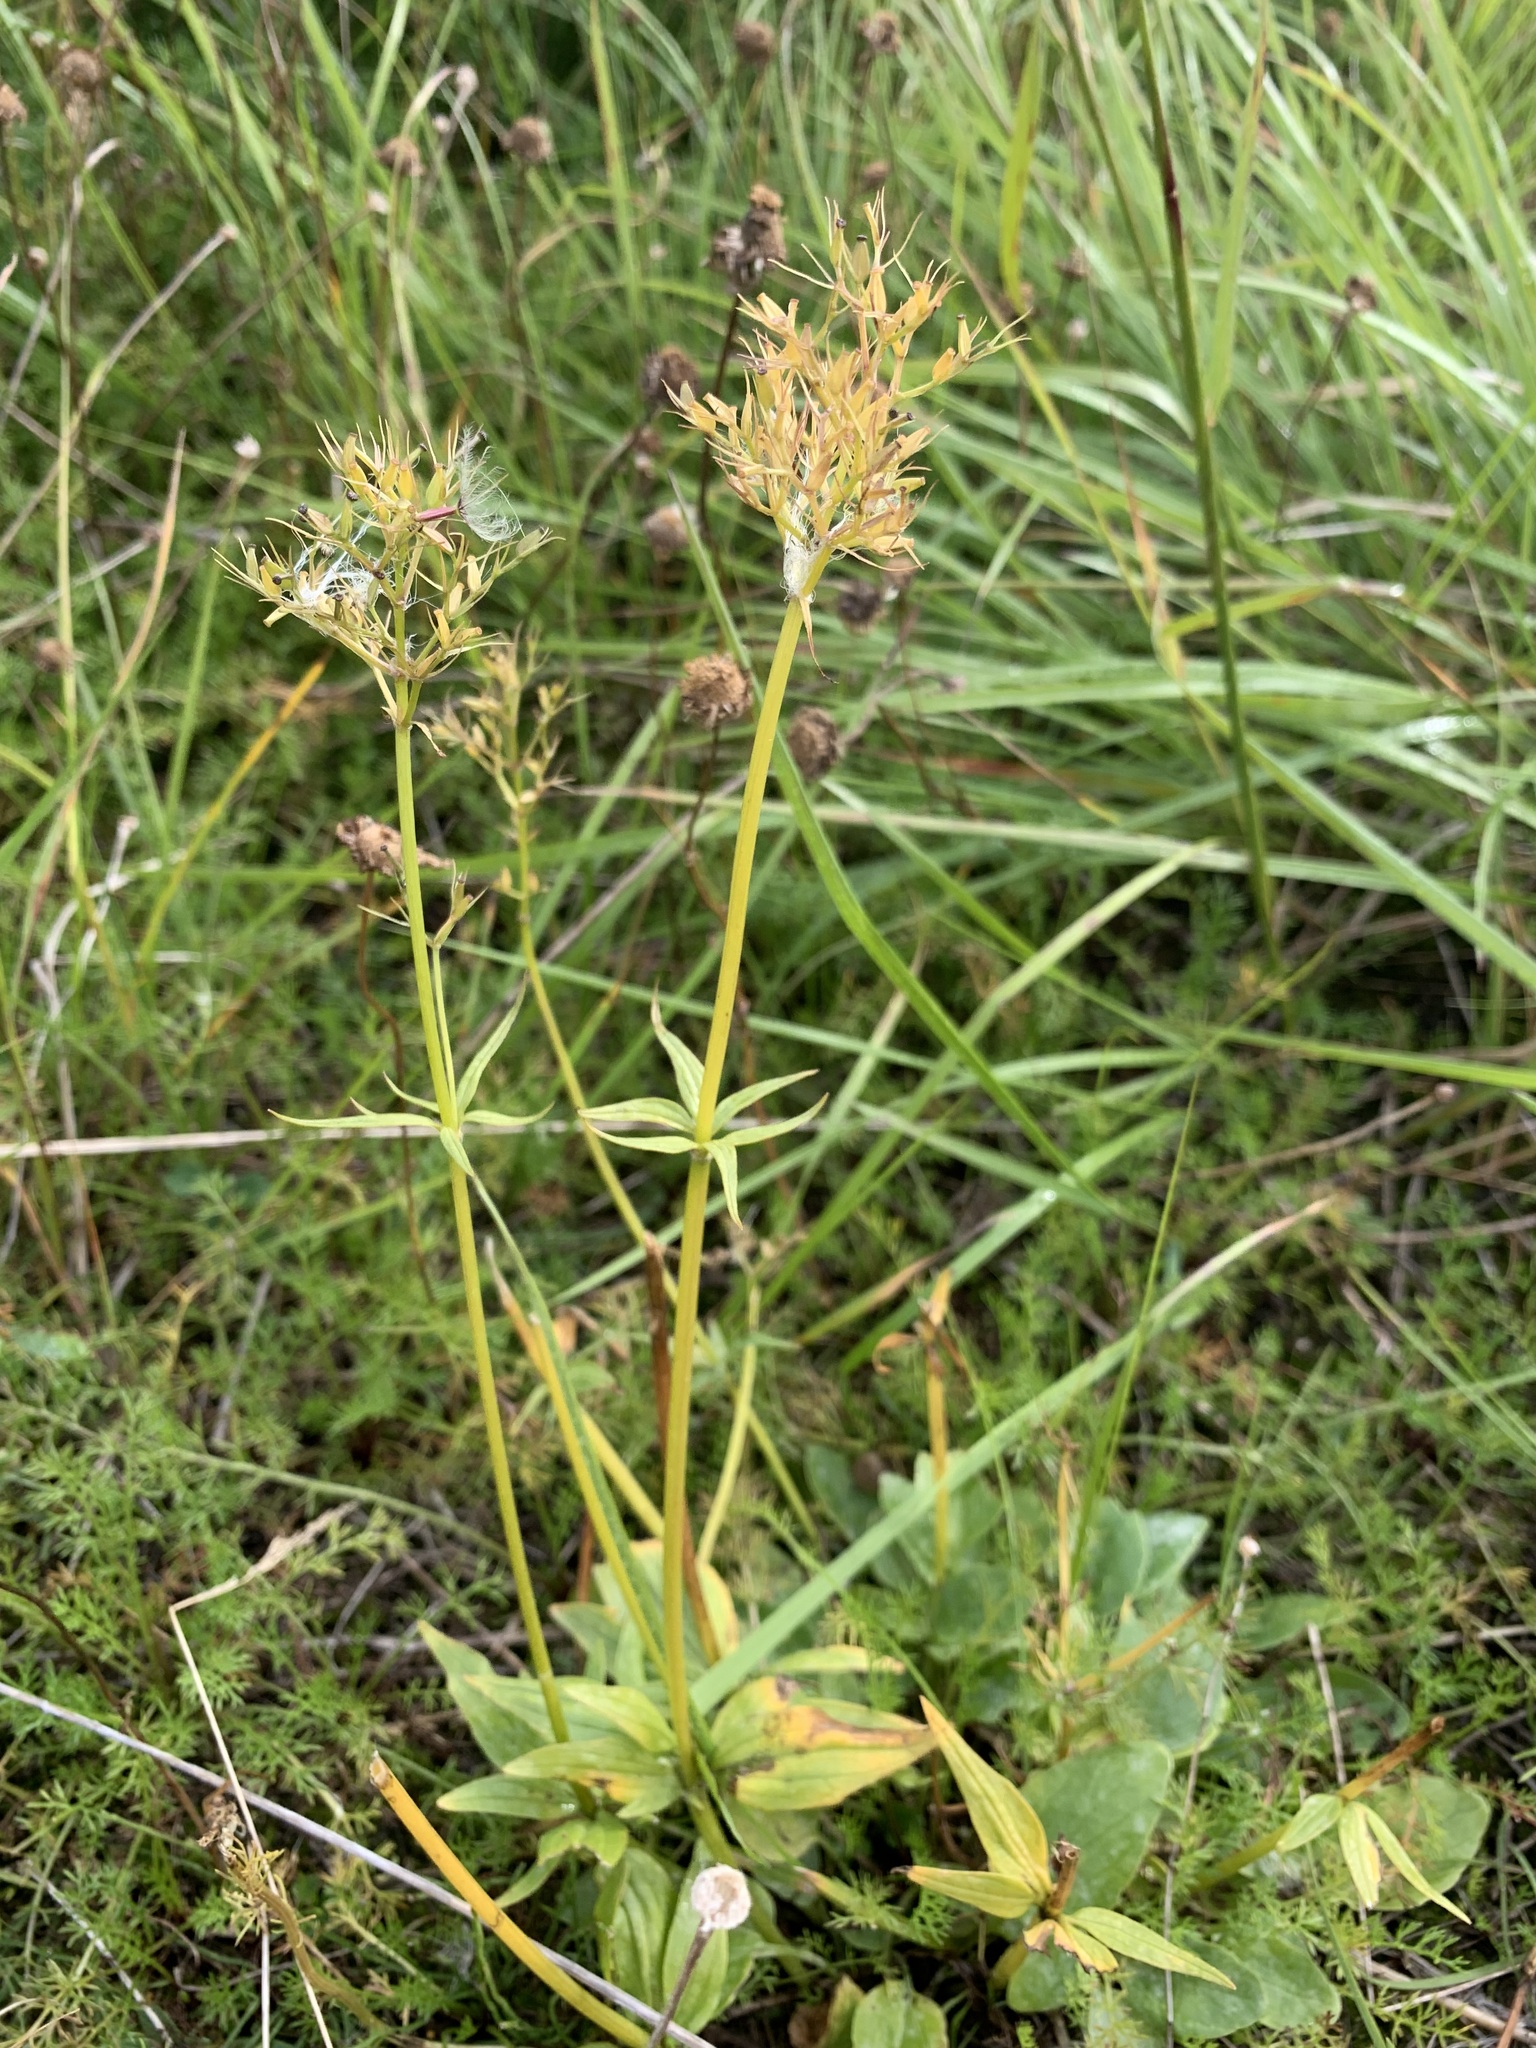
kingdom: Plantae
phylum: Tracheophyta
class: Magnoliopsida
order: Dipsacales
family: Caprifoliaceae
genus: Valeriana
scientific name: Valeriana capitata
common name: Capitate valerian
